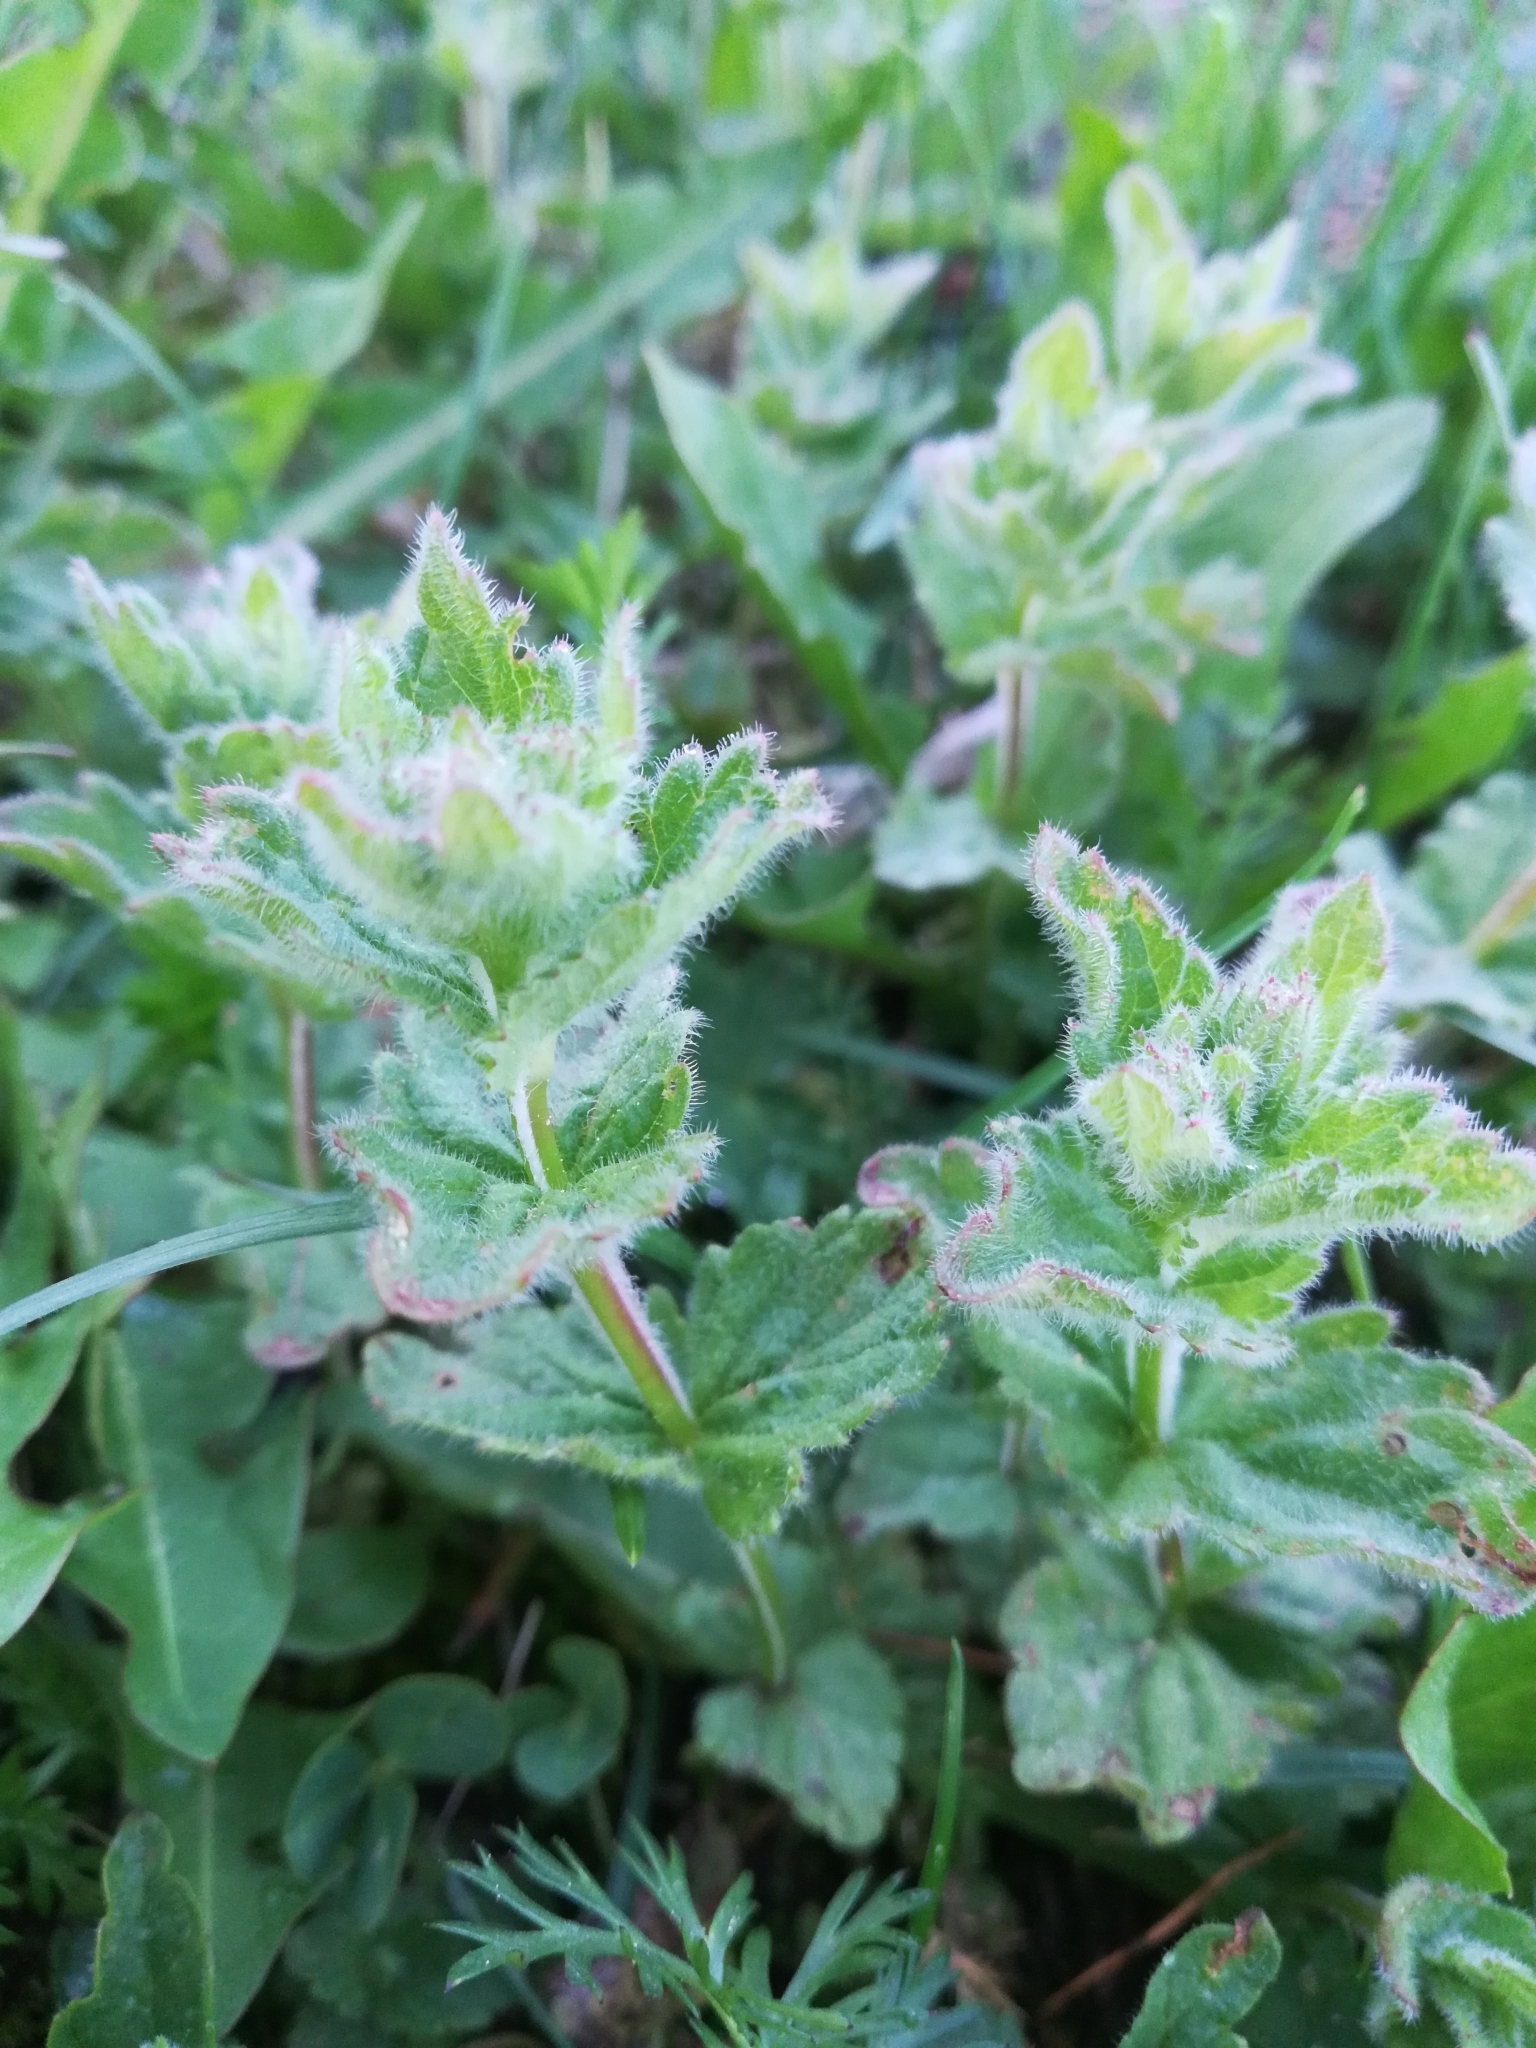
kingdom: Plantae
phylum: Tracheophyta
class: Magnoliopsida
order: Lamiales
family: Plantaginaceae
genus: Veronica
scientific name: Veronica chamaedrys
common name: Germander speedwell
